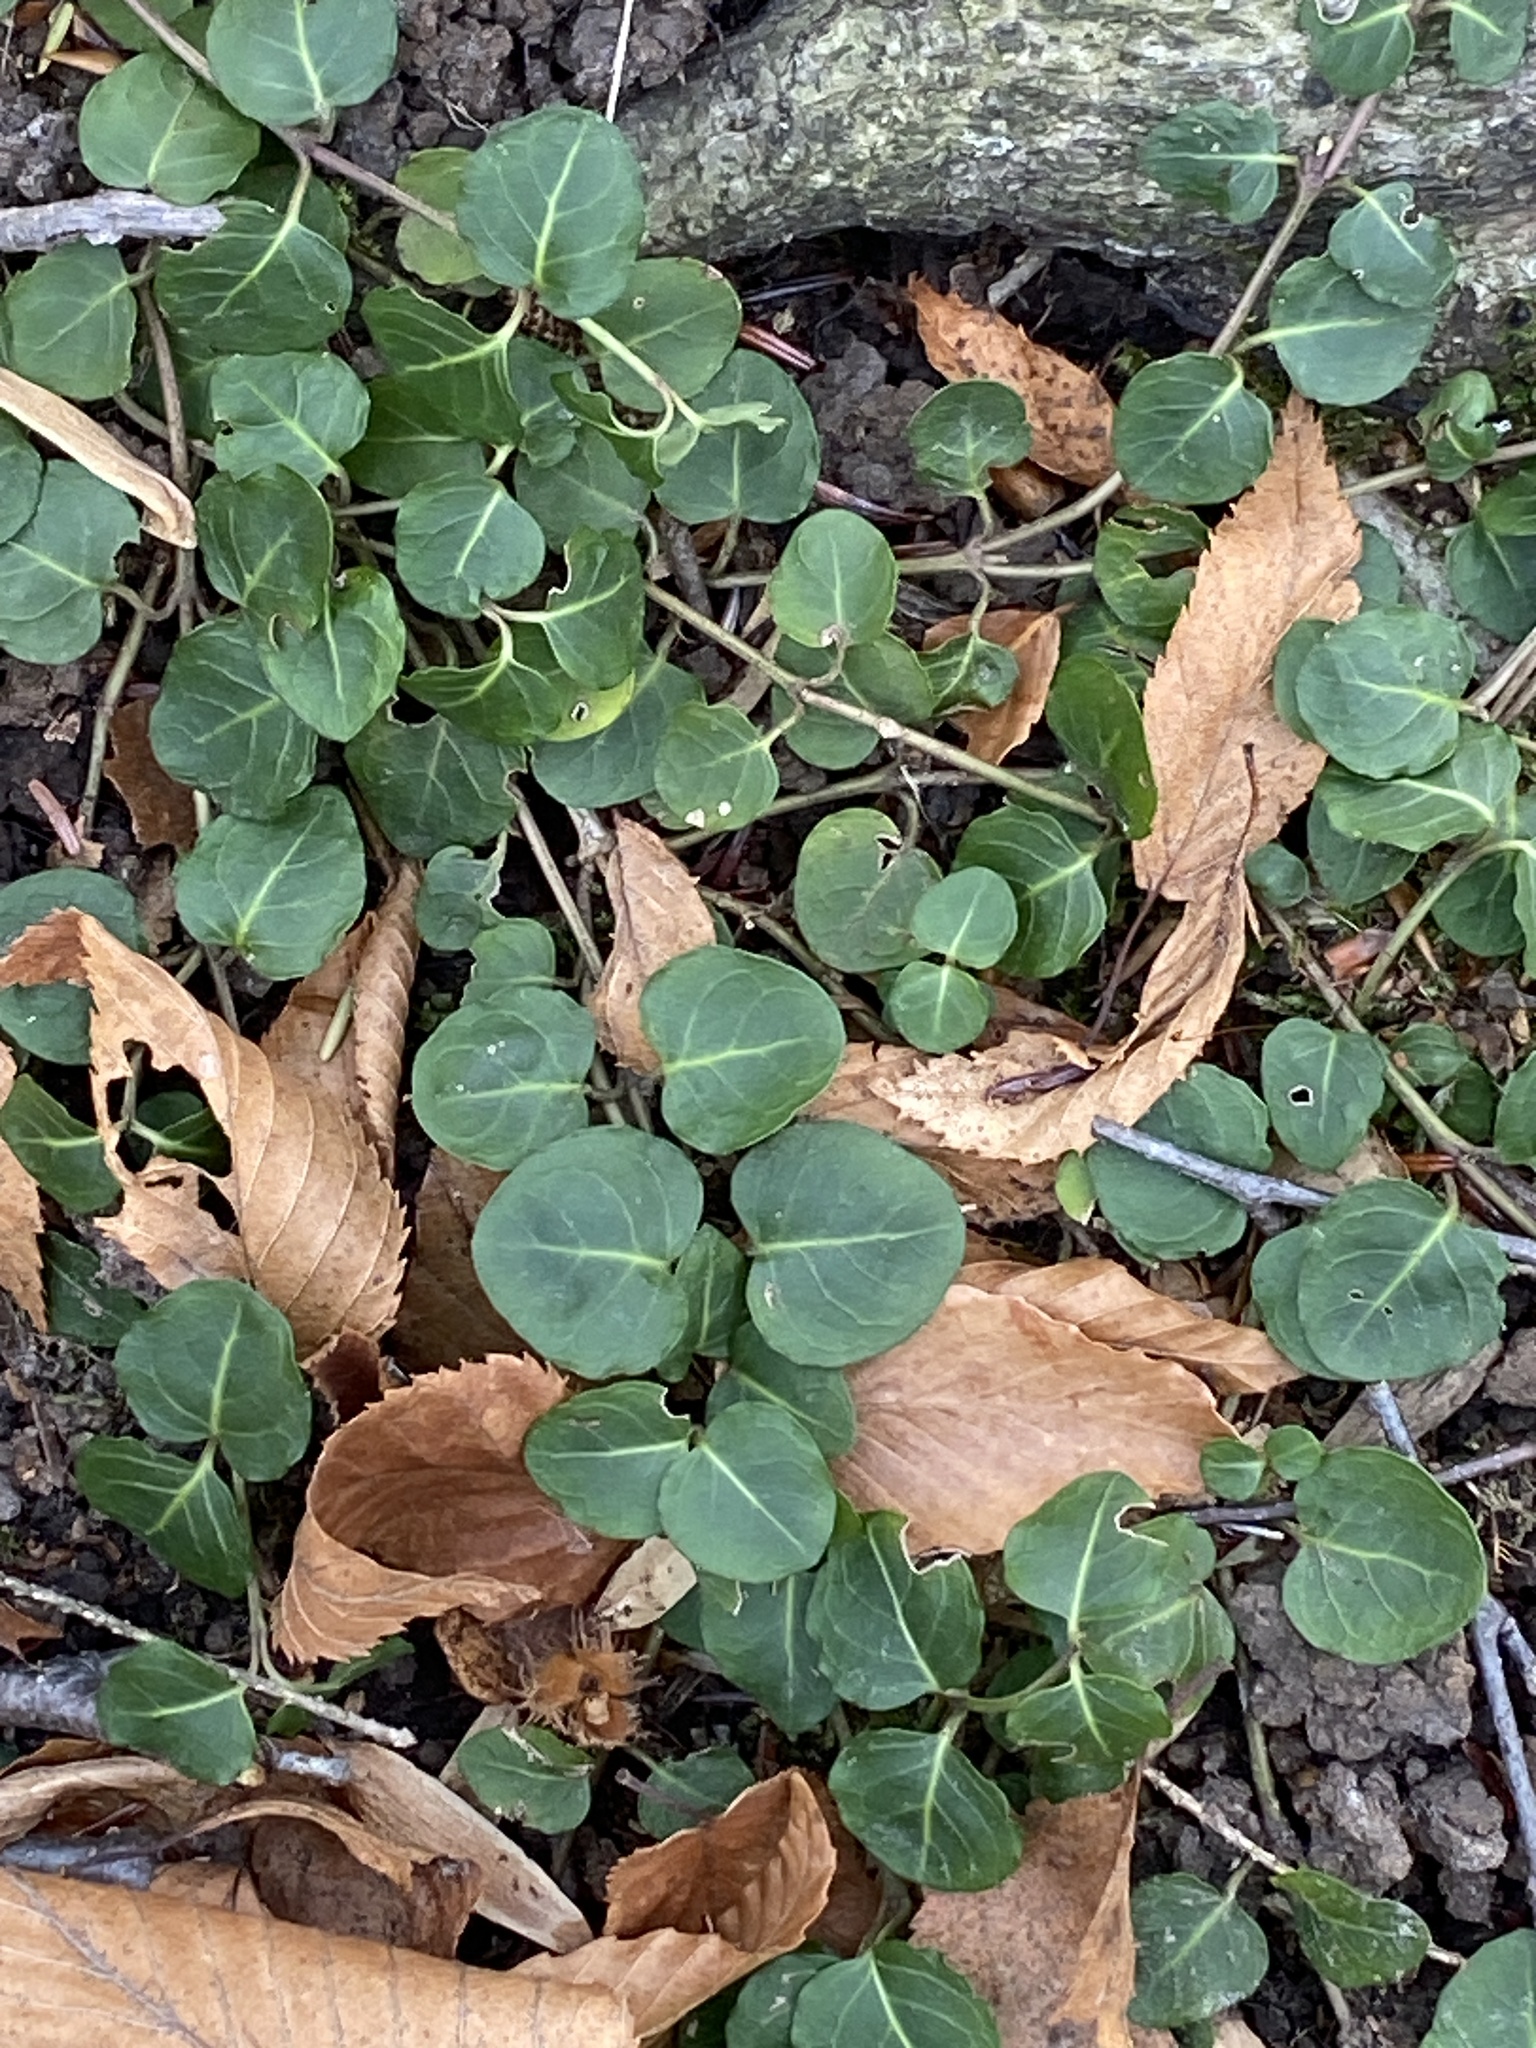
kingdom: Plantae
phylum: Tracheophyta
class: Magnoliopsida
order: Gentianales
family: Rubiaceae
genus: Mitchella
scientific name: Mitchella repens
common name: Partridge-berry
